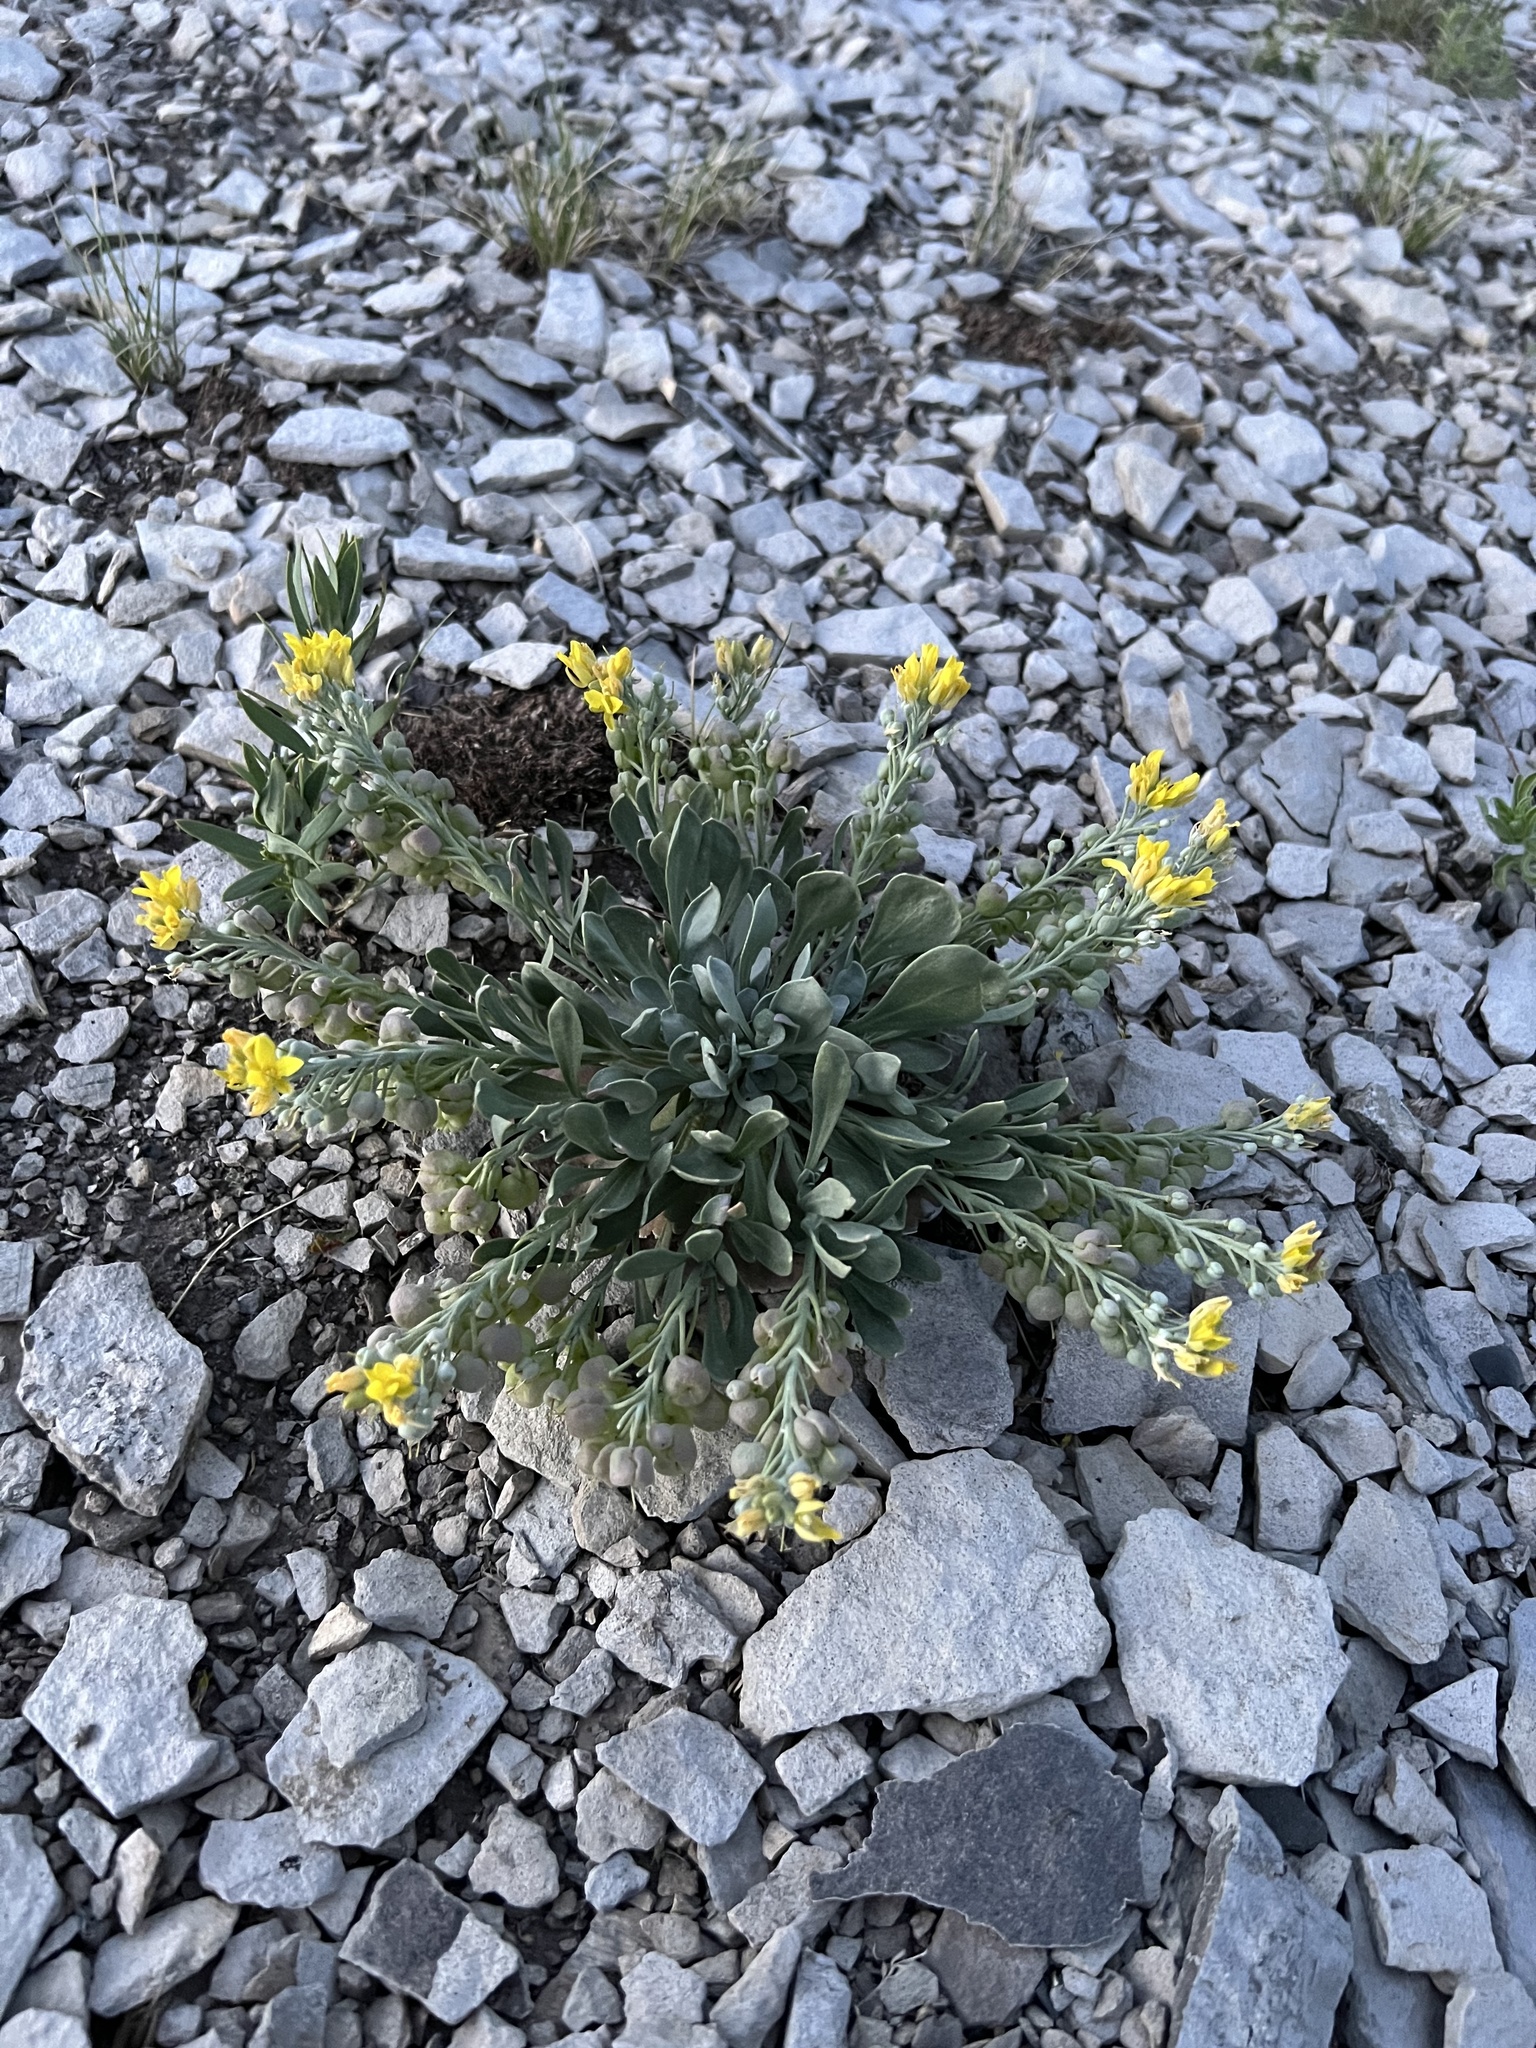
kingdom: Plantae
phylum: Tracheophyta
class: Magnoliopsida
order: Brassicales
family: Brassicaceae
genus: Physaria
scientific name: Physaria bellii
